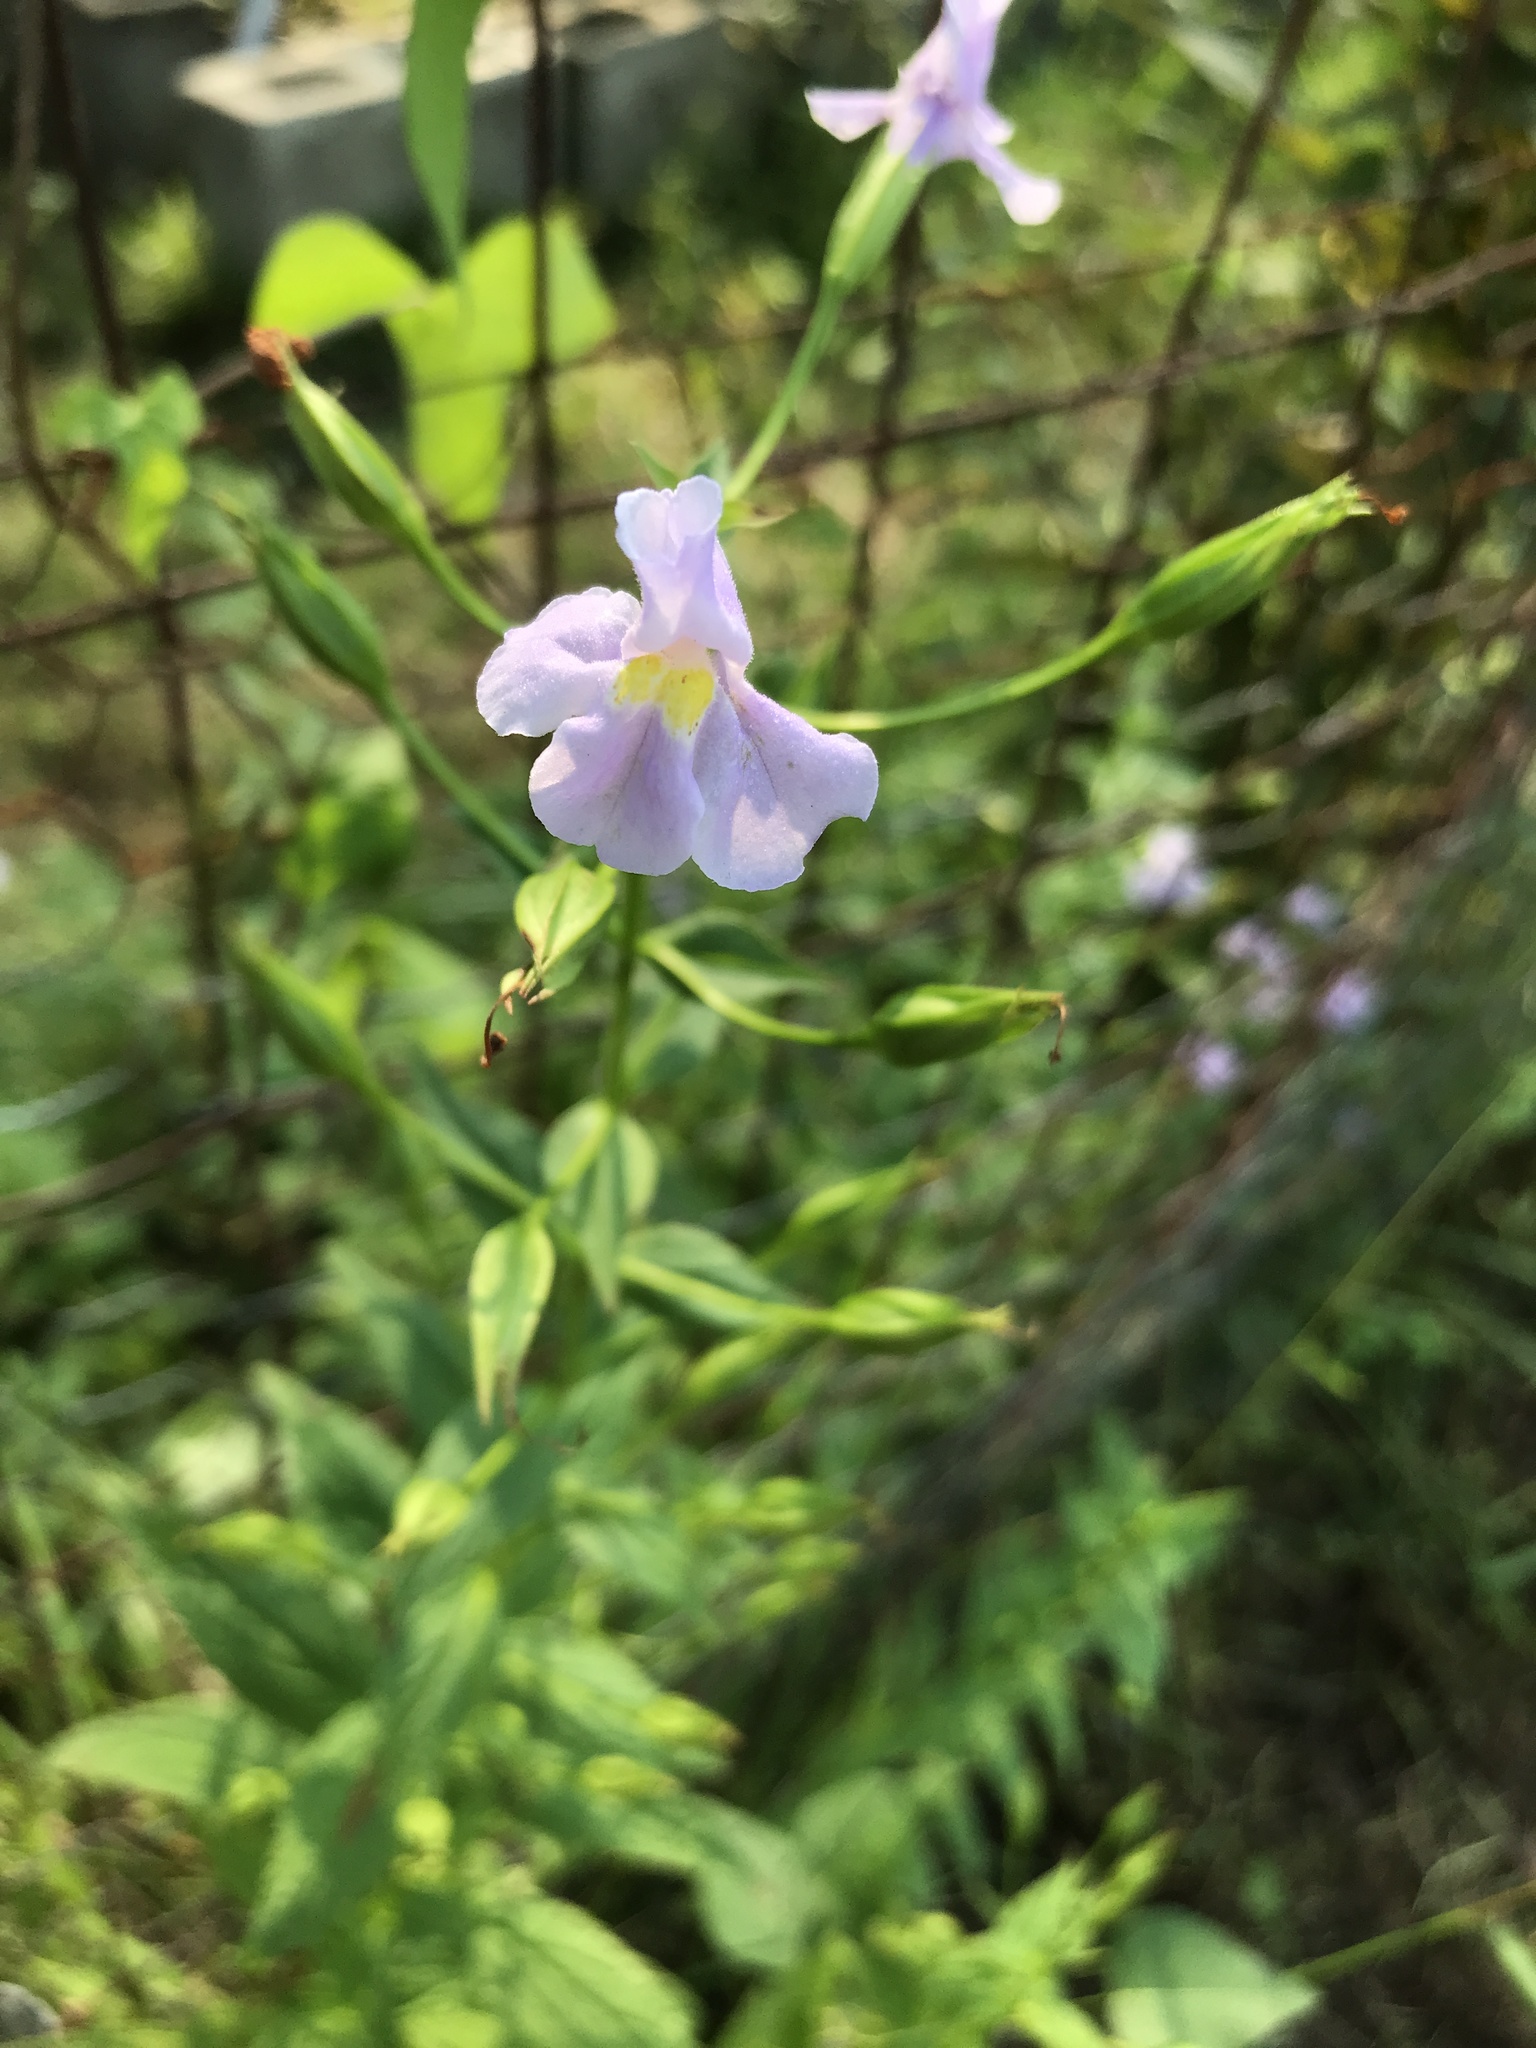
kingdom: Plantae
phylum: Tracheophyta
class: Magnoliopsida
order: Lamiales
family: Phrymaceae
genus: Mimulus
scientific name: Mimulus ringens
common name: Allegheny monkeyflower
